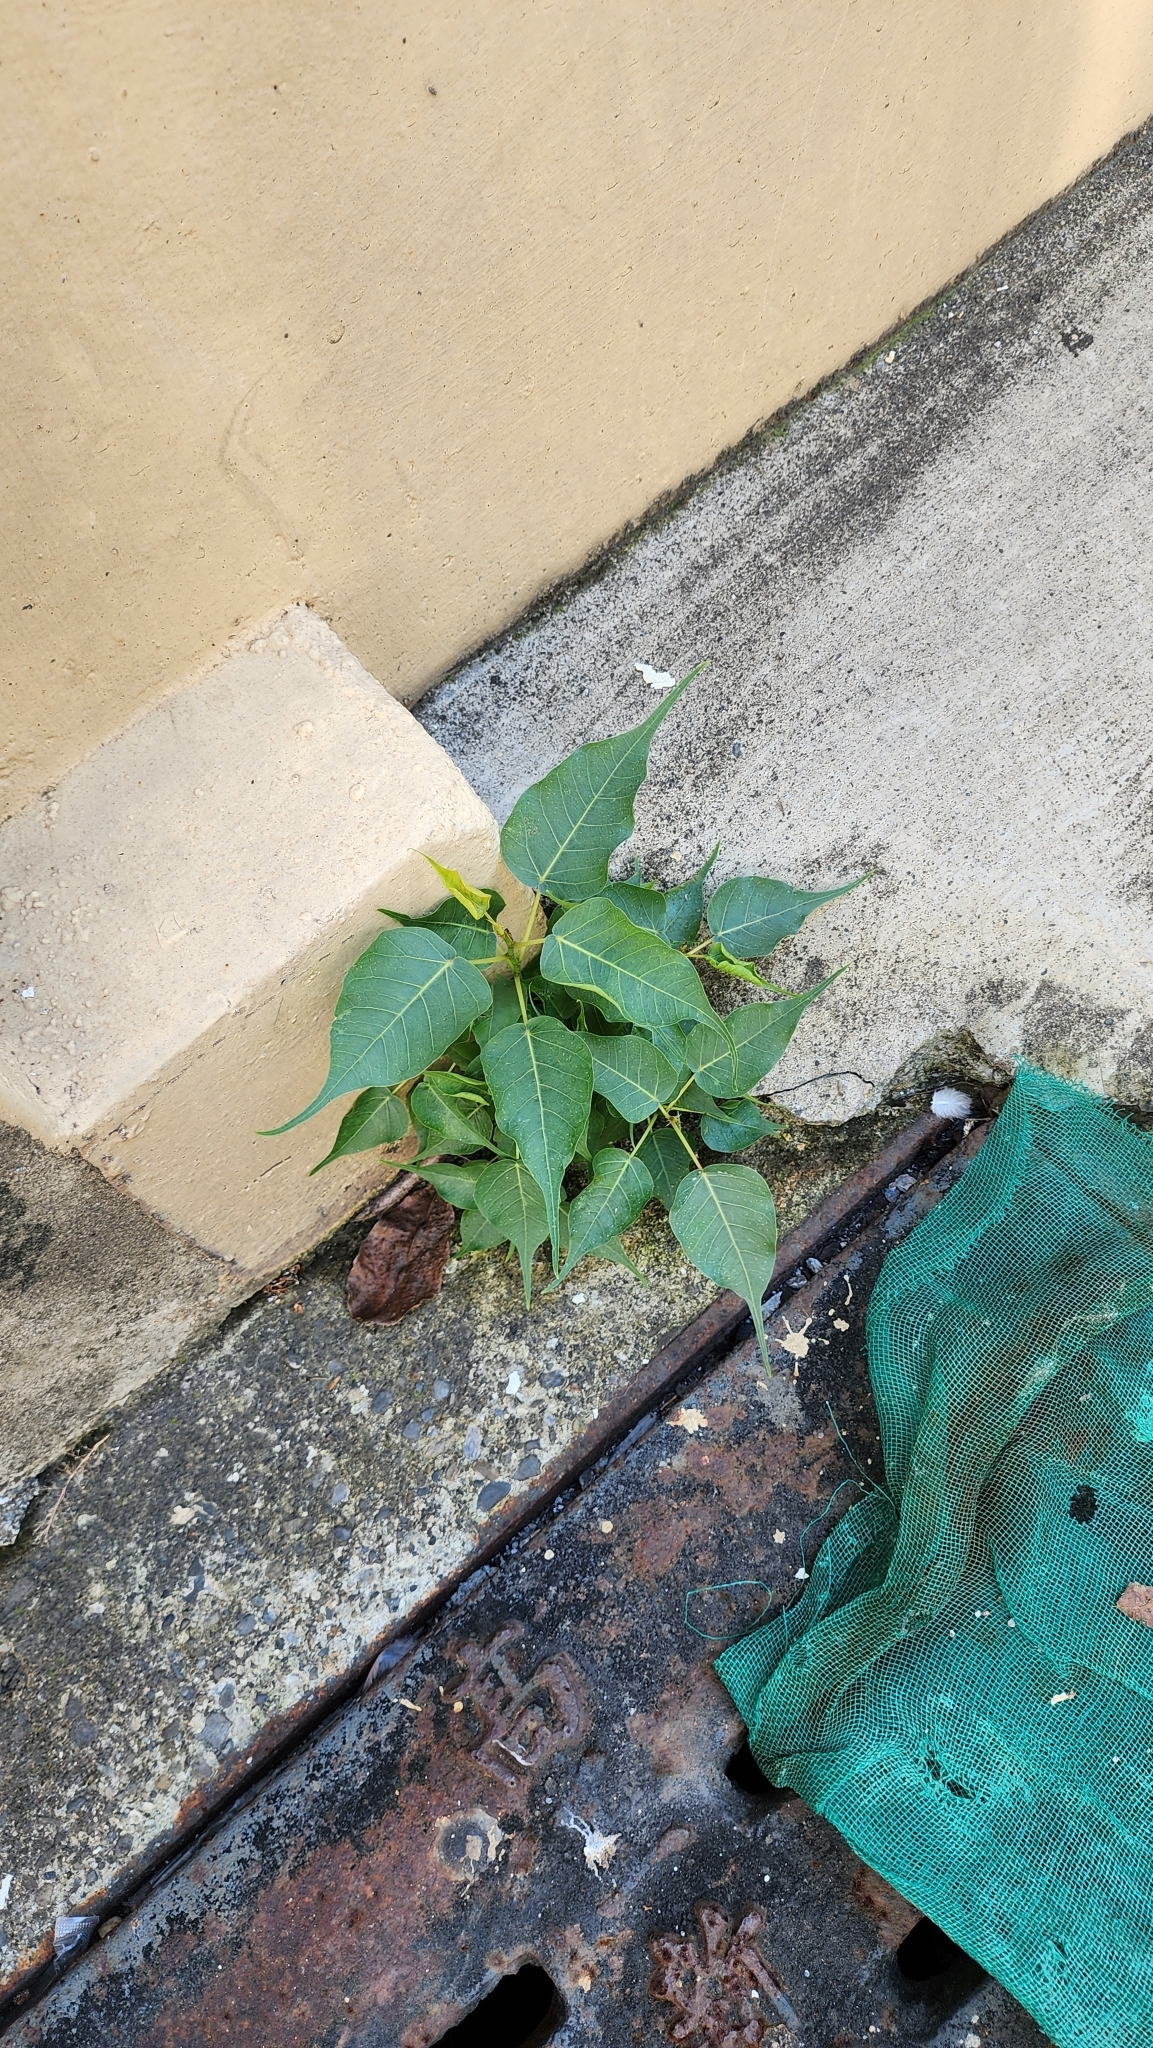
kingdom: Plantae
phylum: Tracheophyta
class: Magnoliopsida
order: Rosales
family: Moraceae
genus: Ficus
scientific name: Ficus religiosa
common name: Bodhi tree
